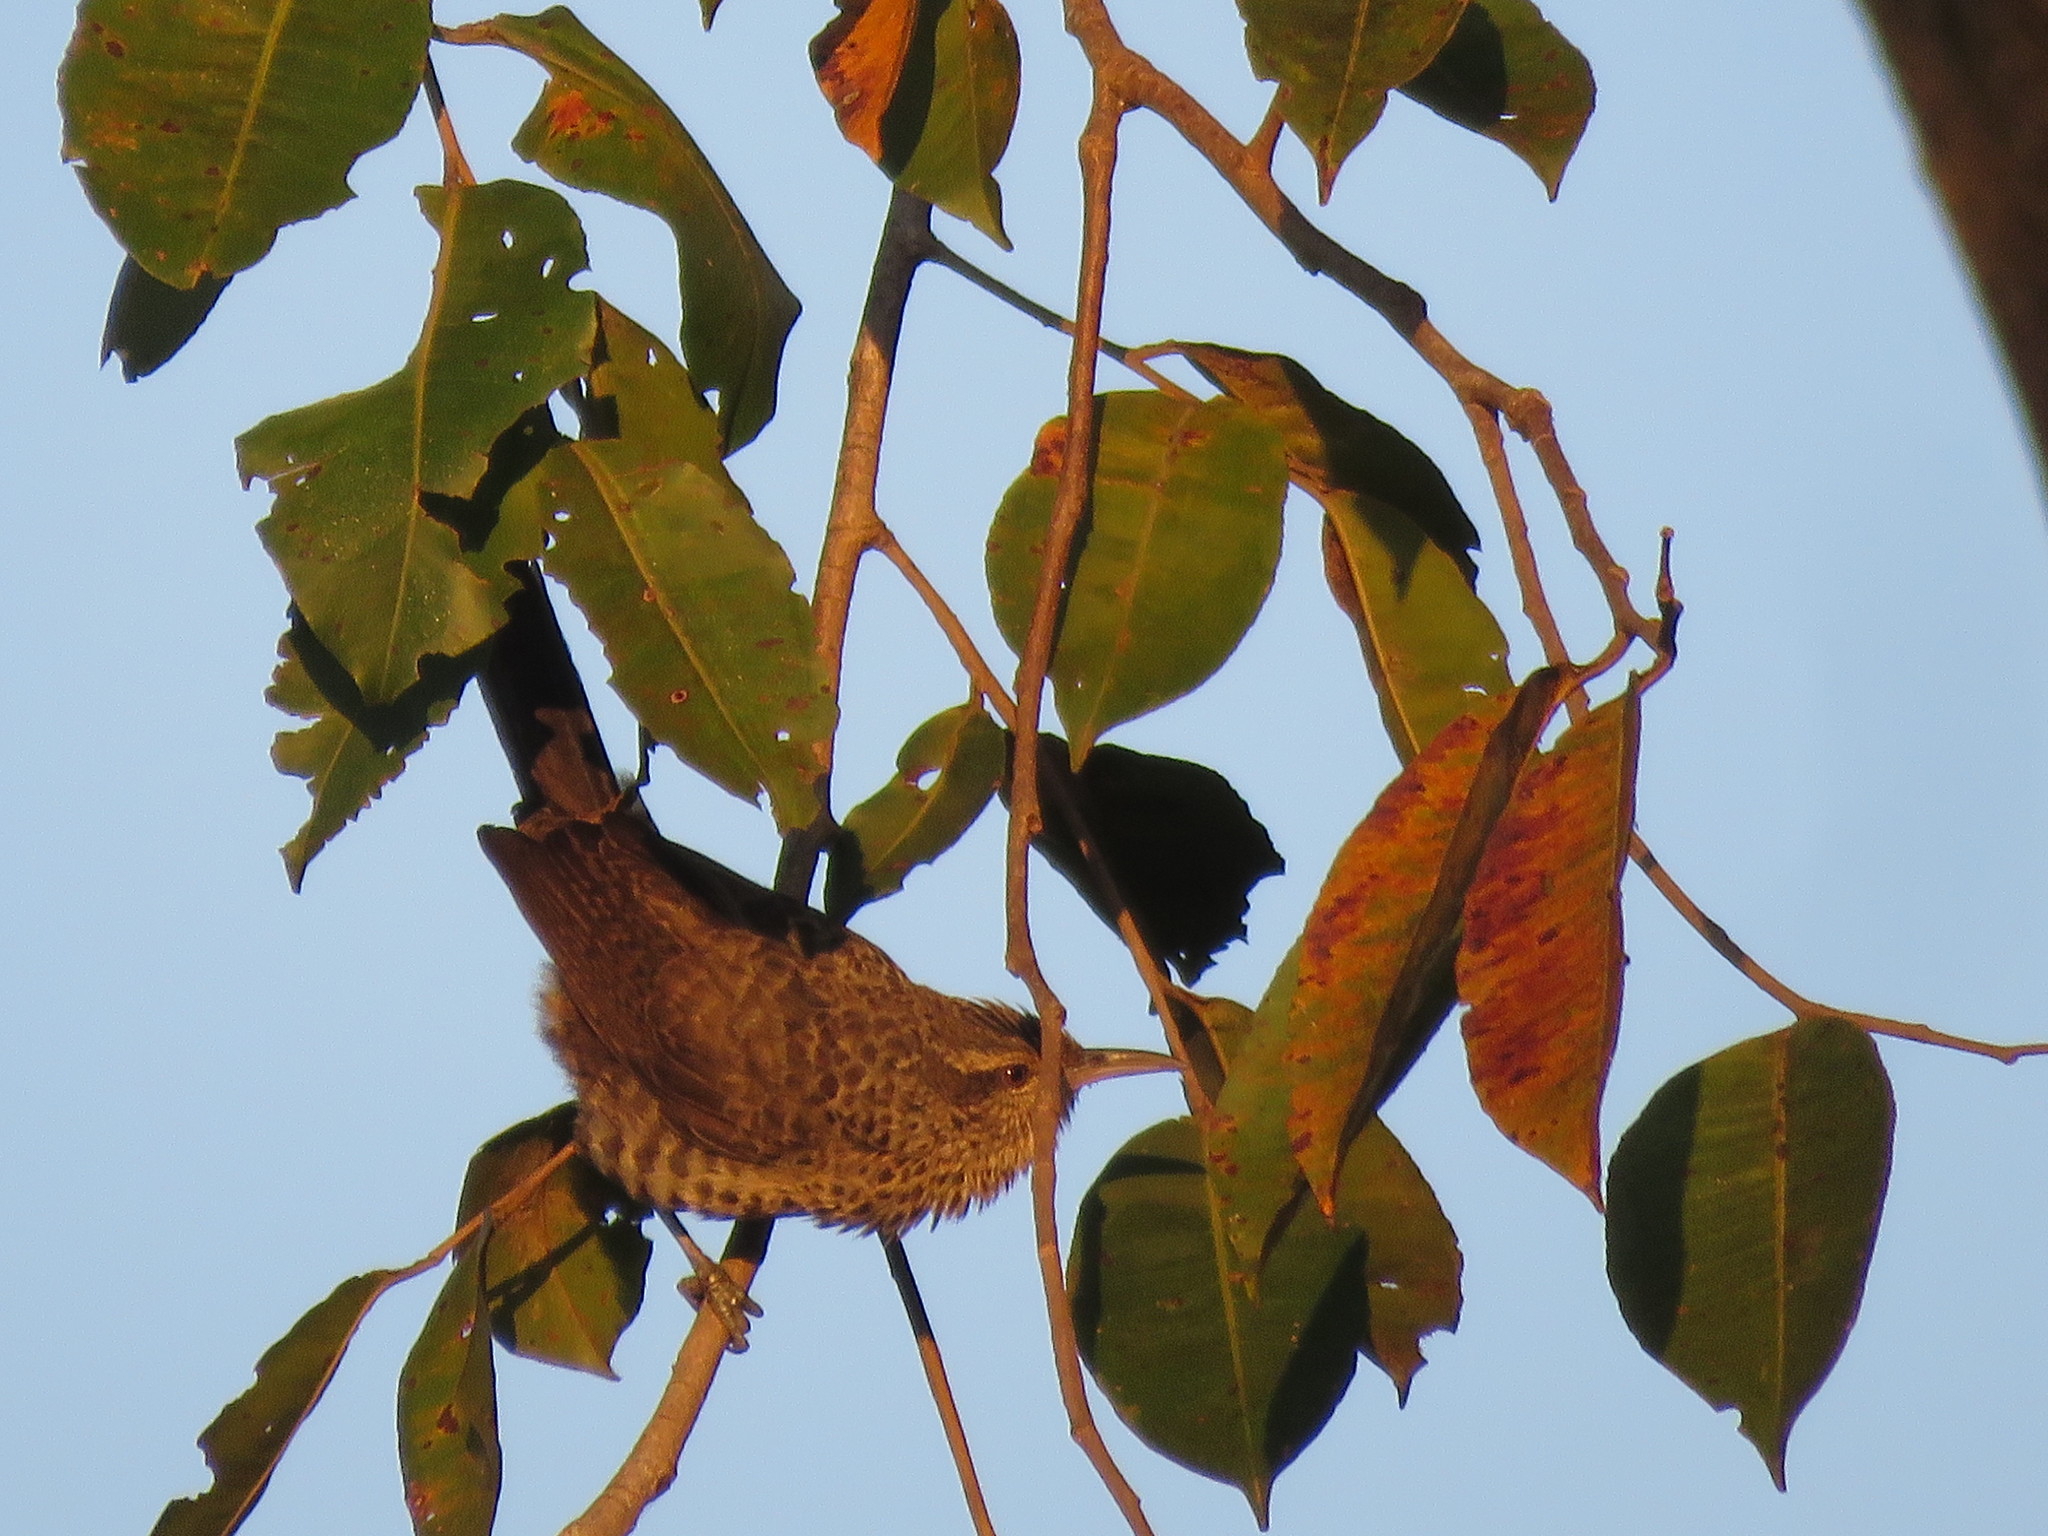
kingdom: Animalia
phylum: Chordata
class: Aves
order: Passeriformes
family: Troglodytidae
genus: Campylorhynchus
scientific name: Campylorhynchus turdinus
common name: Thrush-like wren
